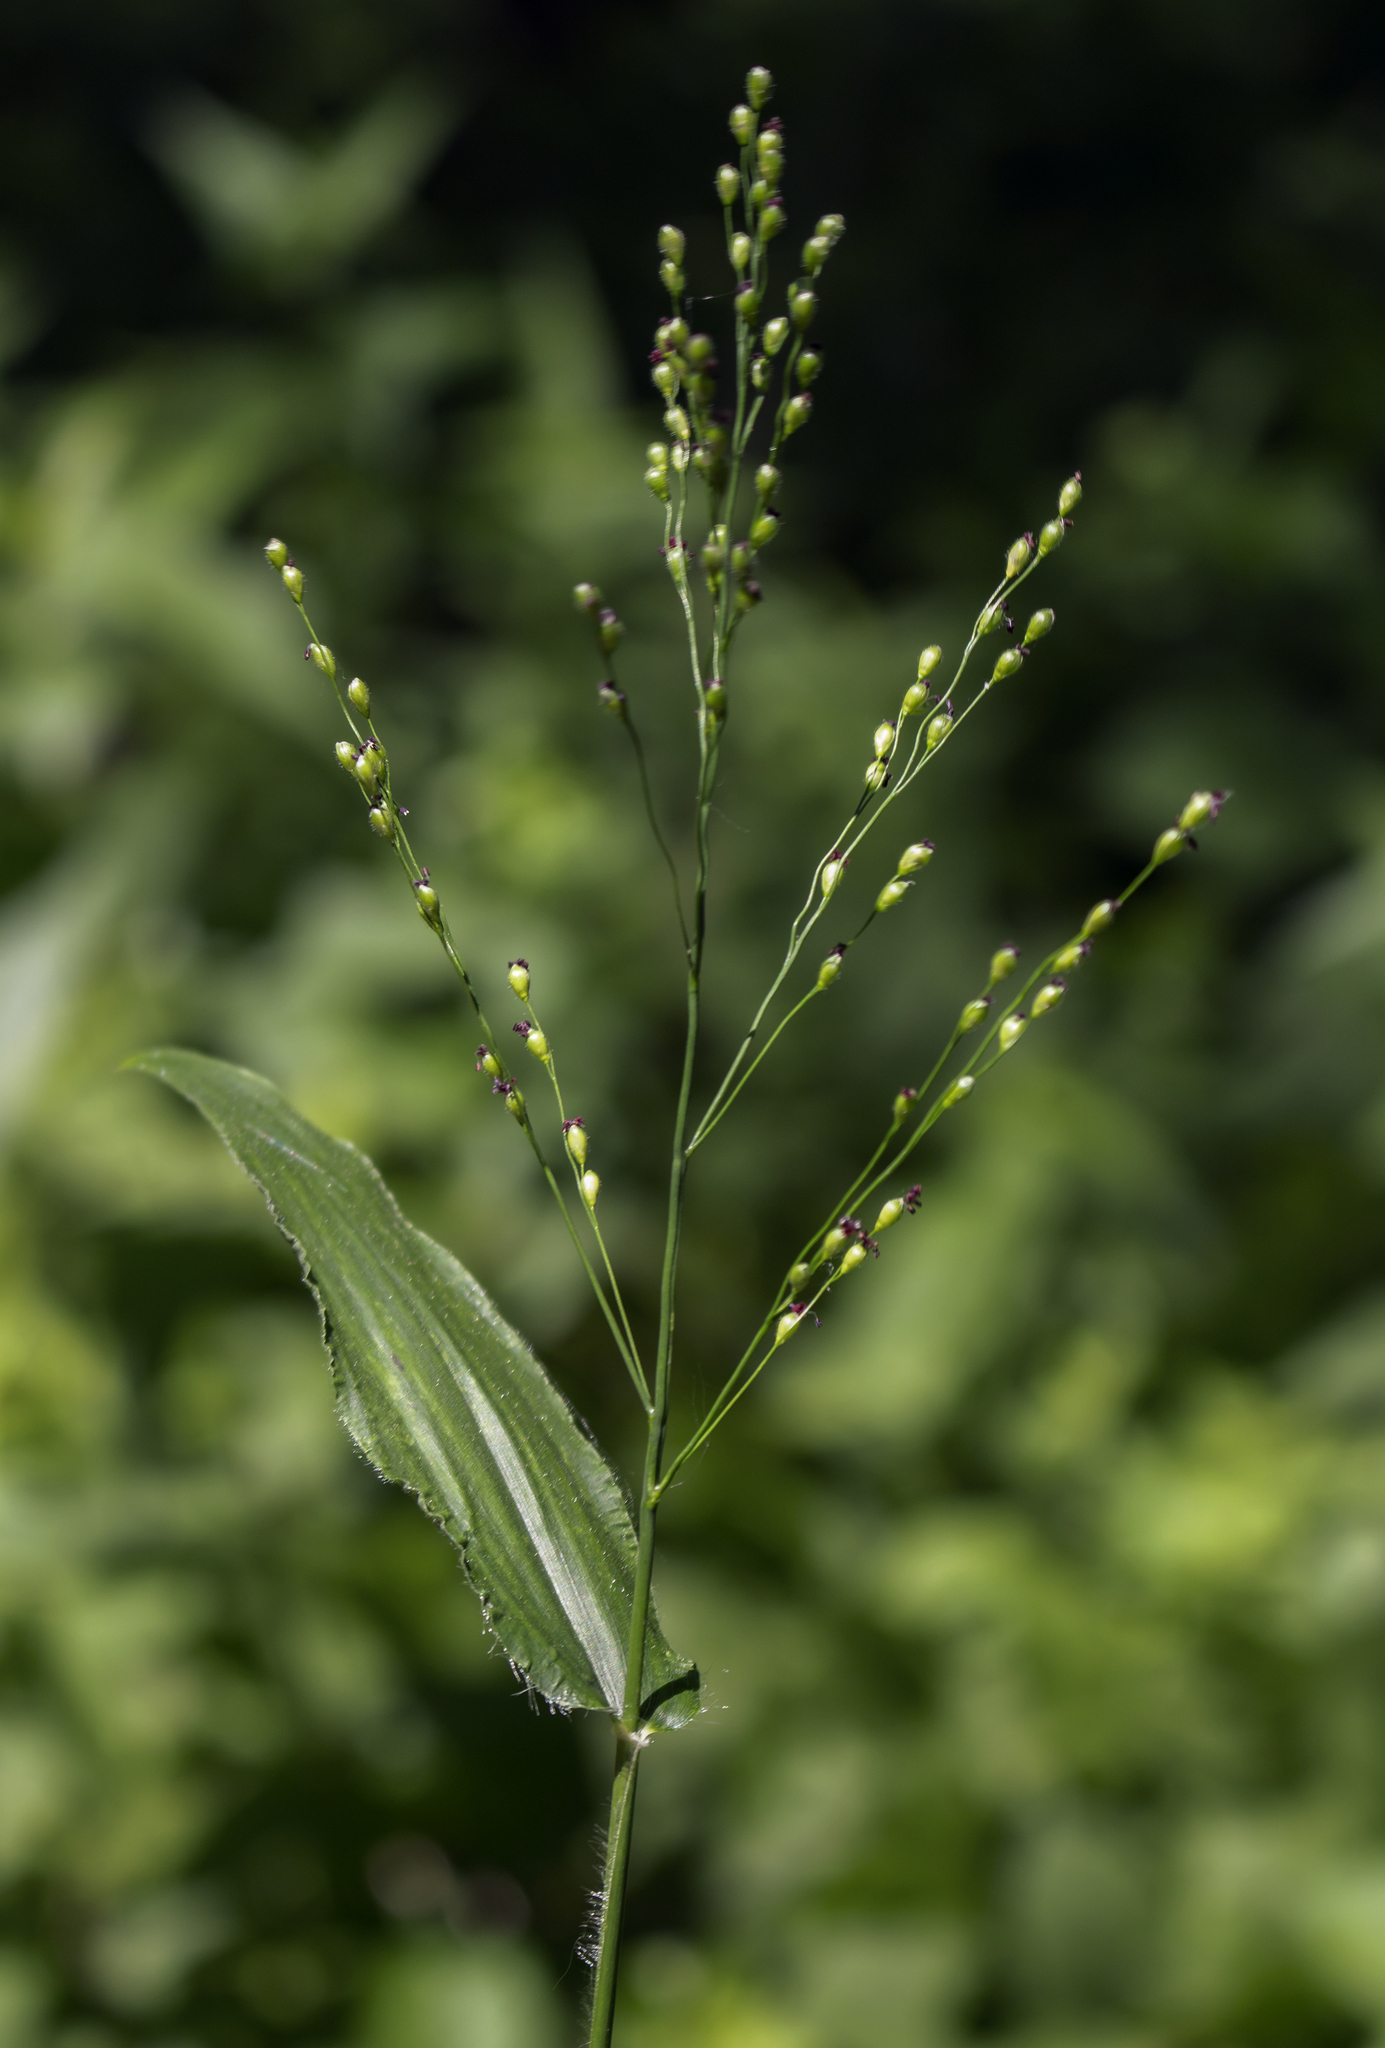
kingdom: Plantae
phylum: Tracheophyta
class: Liliopsida
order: Poales
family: Poaceae
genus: Dichanthelium
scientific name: Dichanthelium latifolium
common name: Broad-leaved panicgrass
